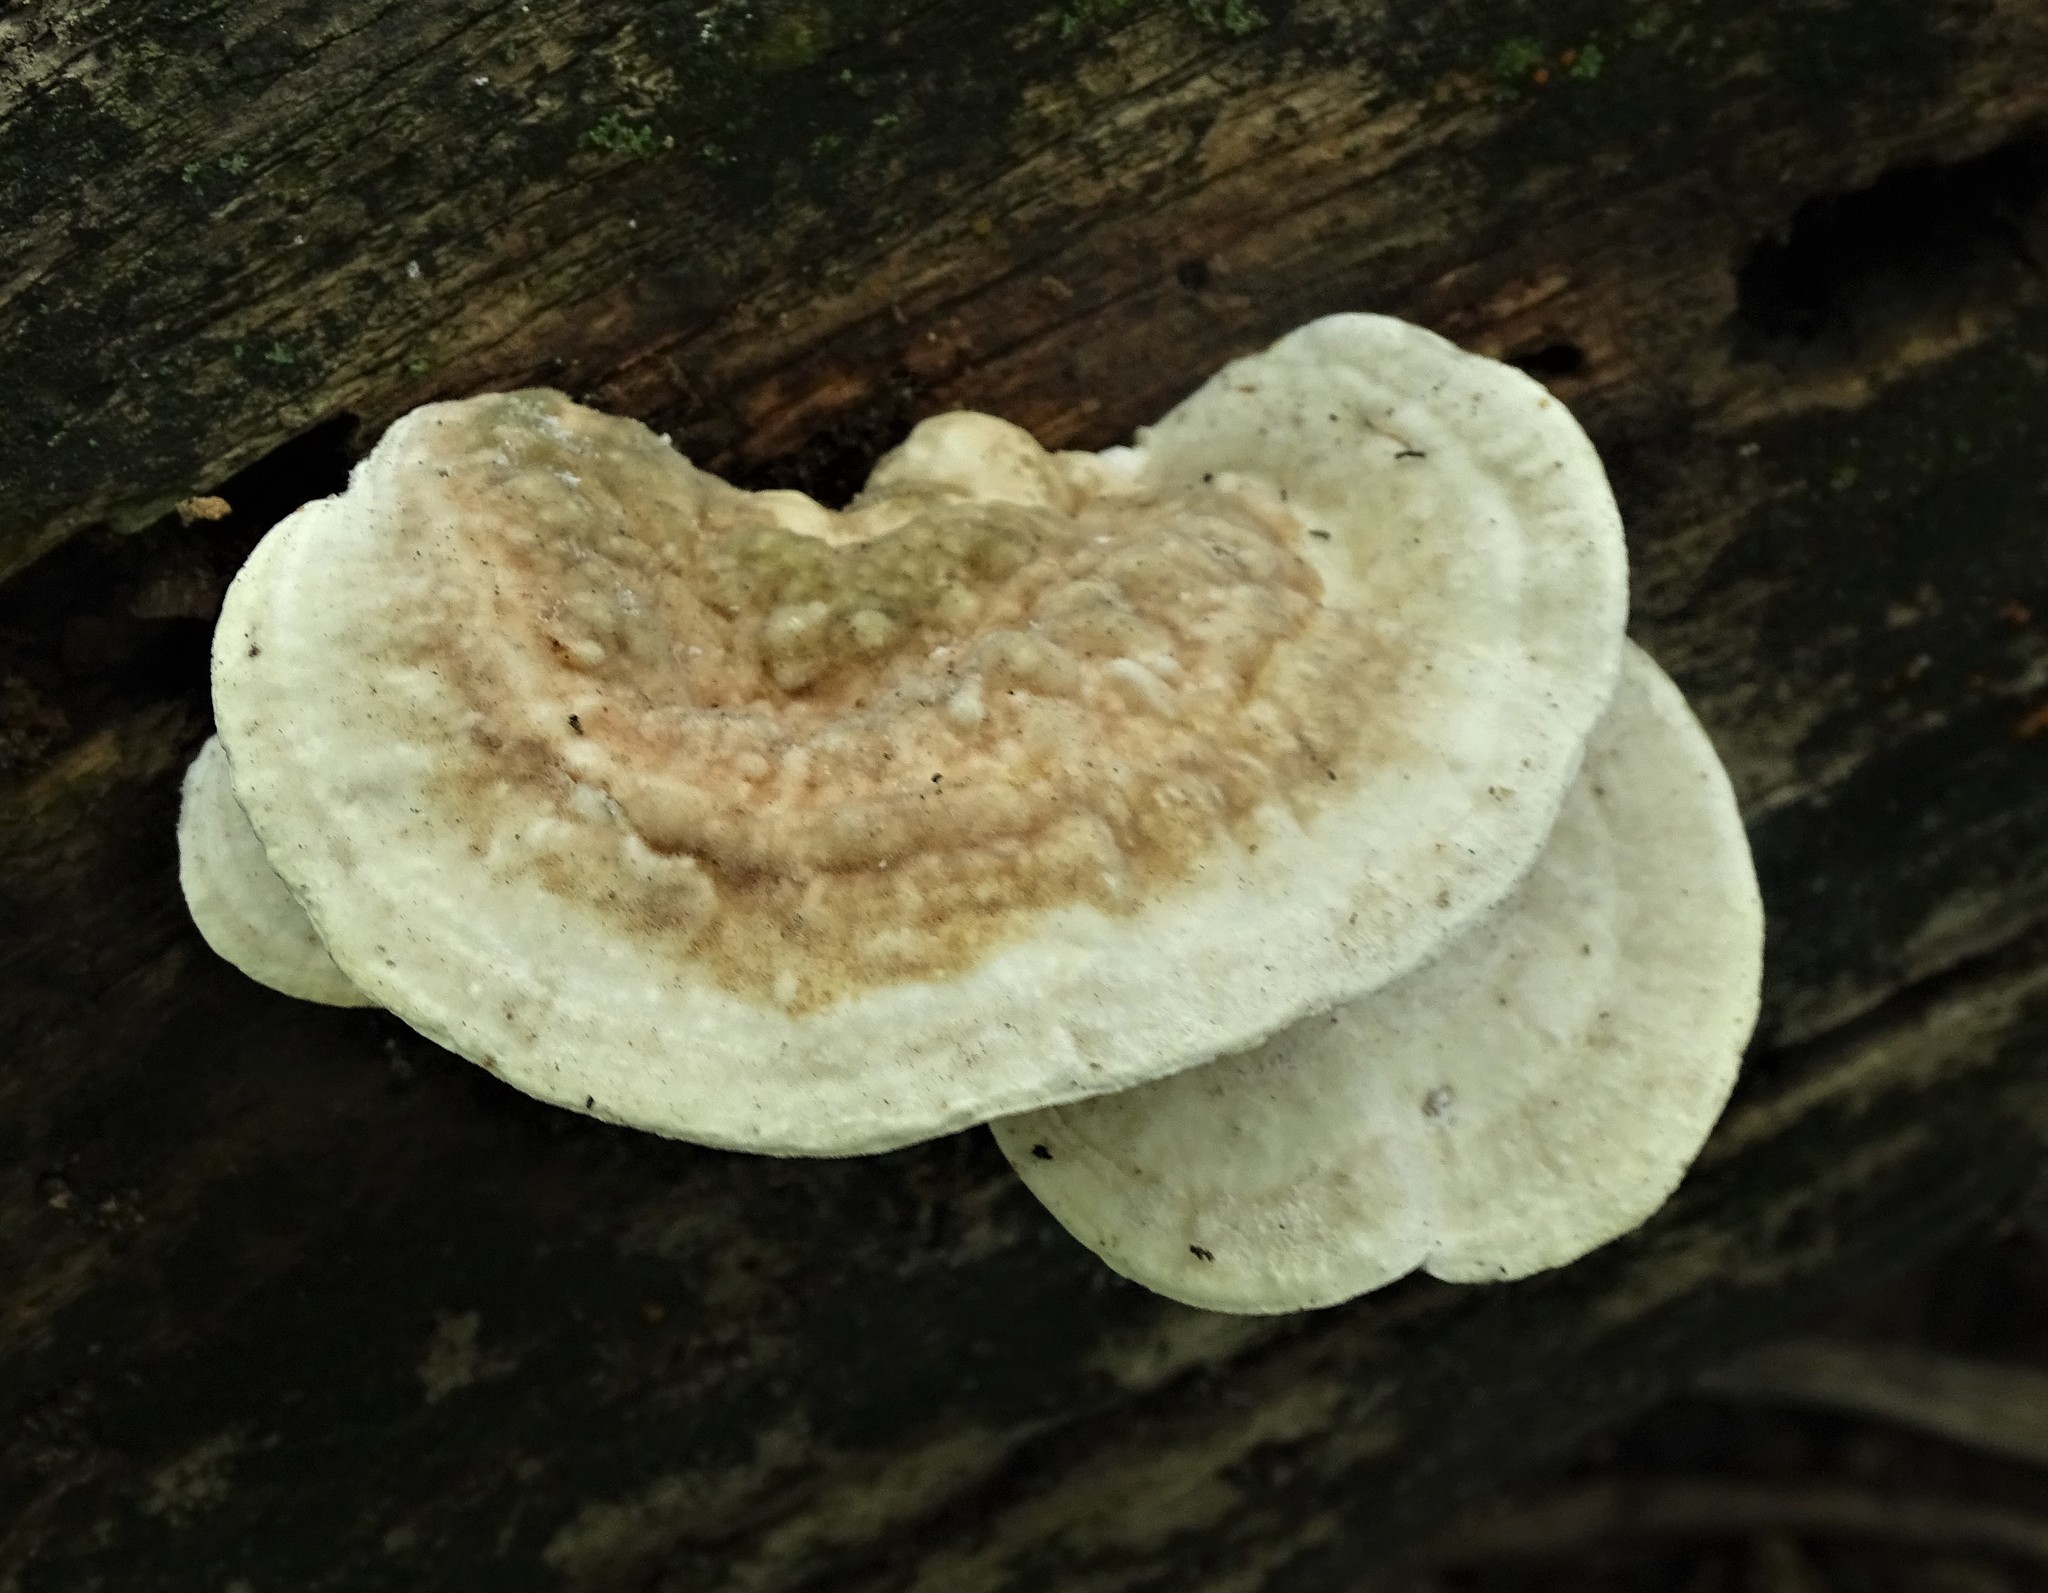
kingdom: Fungi
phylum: Basidiomycota
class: Agaricomycetes
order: Polyporales
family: Polyporaceae
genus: Trametes
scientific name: Trametes gibbosa
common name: Lumpy bracket
